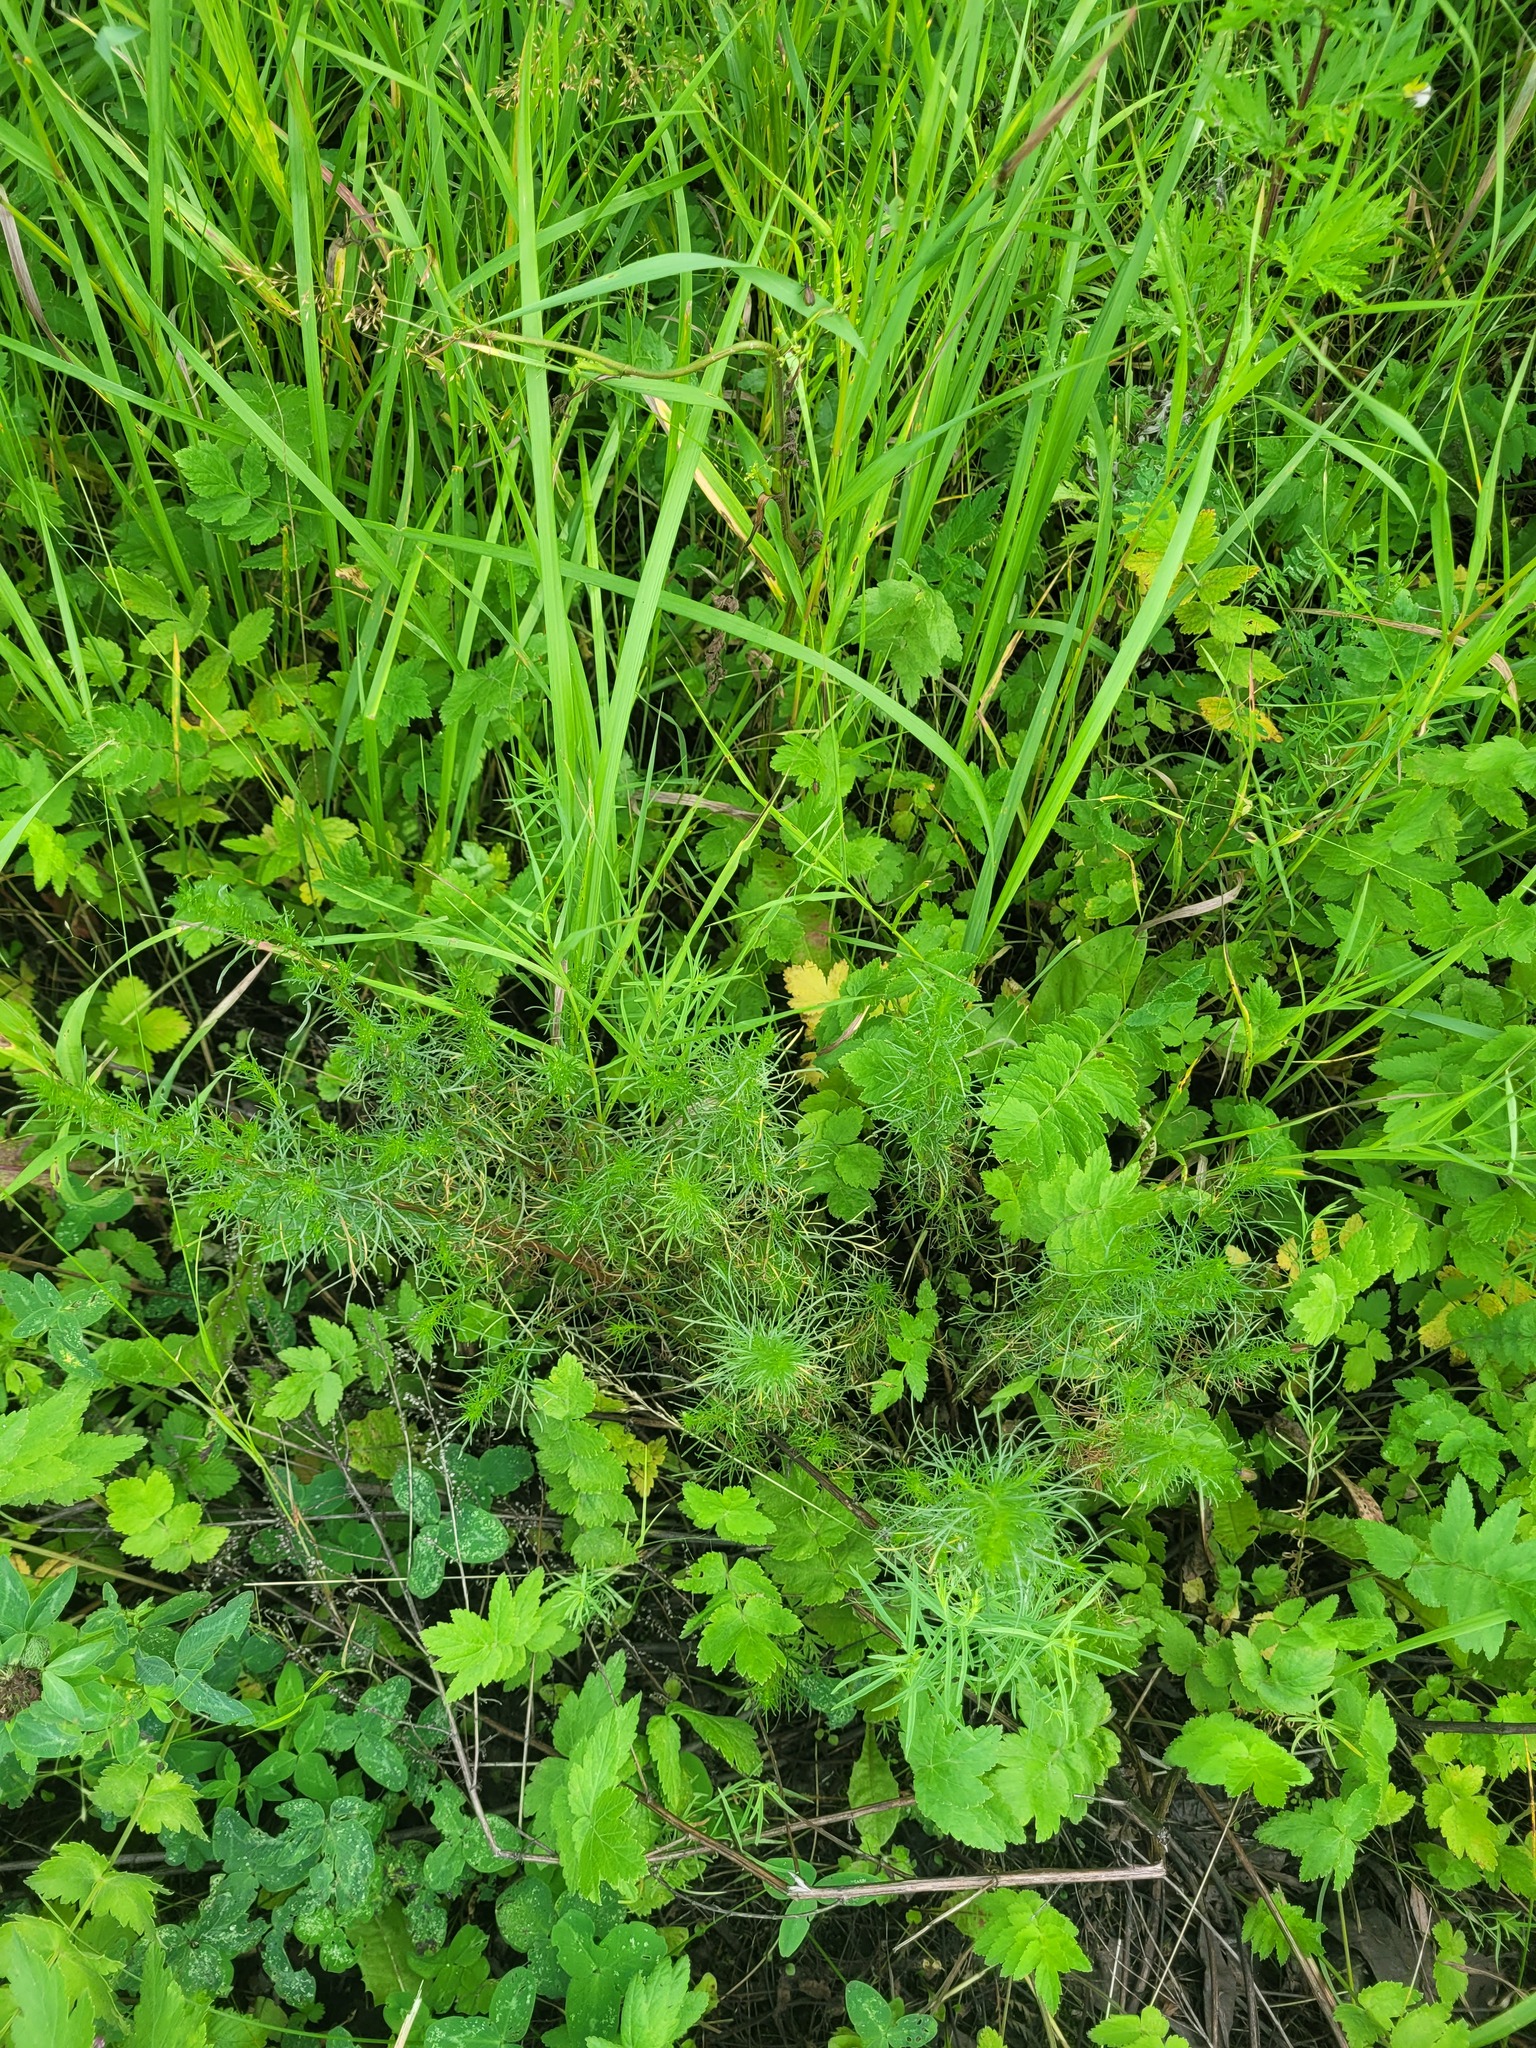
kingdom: Plantae
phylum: Tracheophyta
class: Magnoliopsida
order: Asterales
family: Asteraceae
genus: Artemisia
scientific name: Artemisia campestris
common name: Field wormwood
